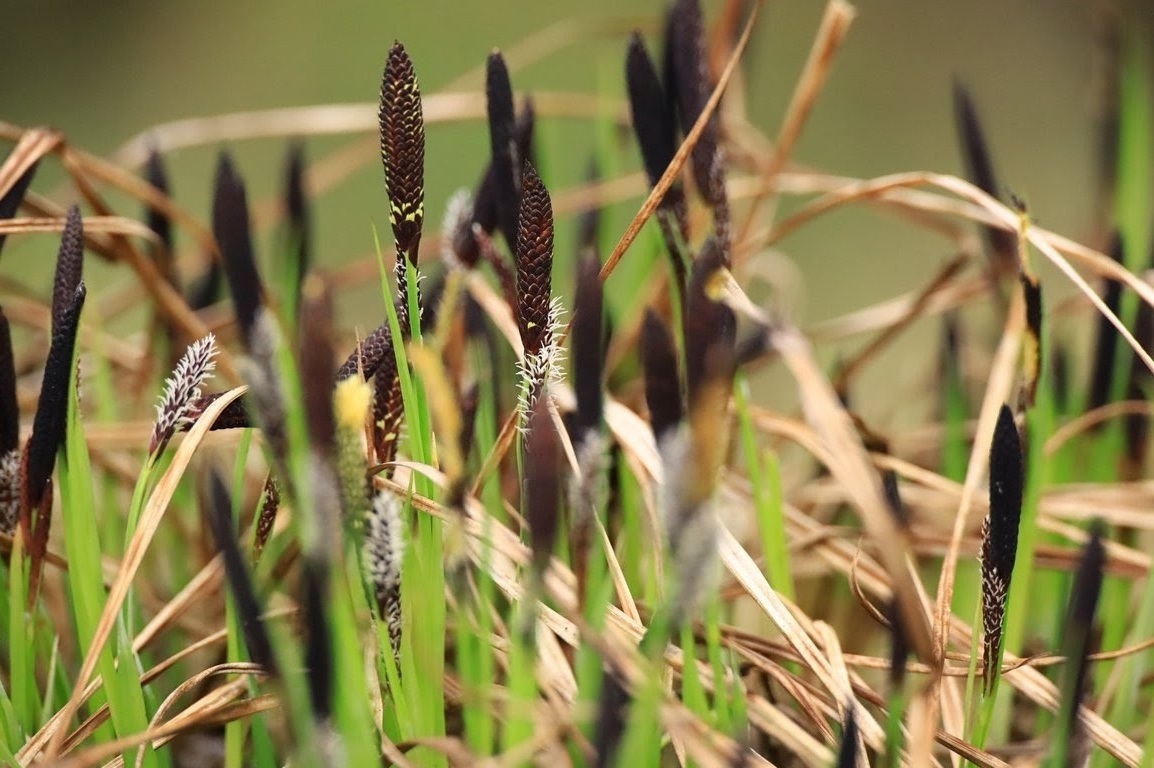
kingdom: Plantae
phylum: Tracheophyta
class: Liliopsida
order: Poales
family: Cyperaceae
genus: Carex
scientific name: Carex nigra
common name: Common sedge
